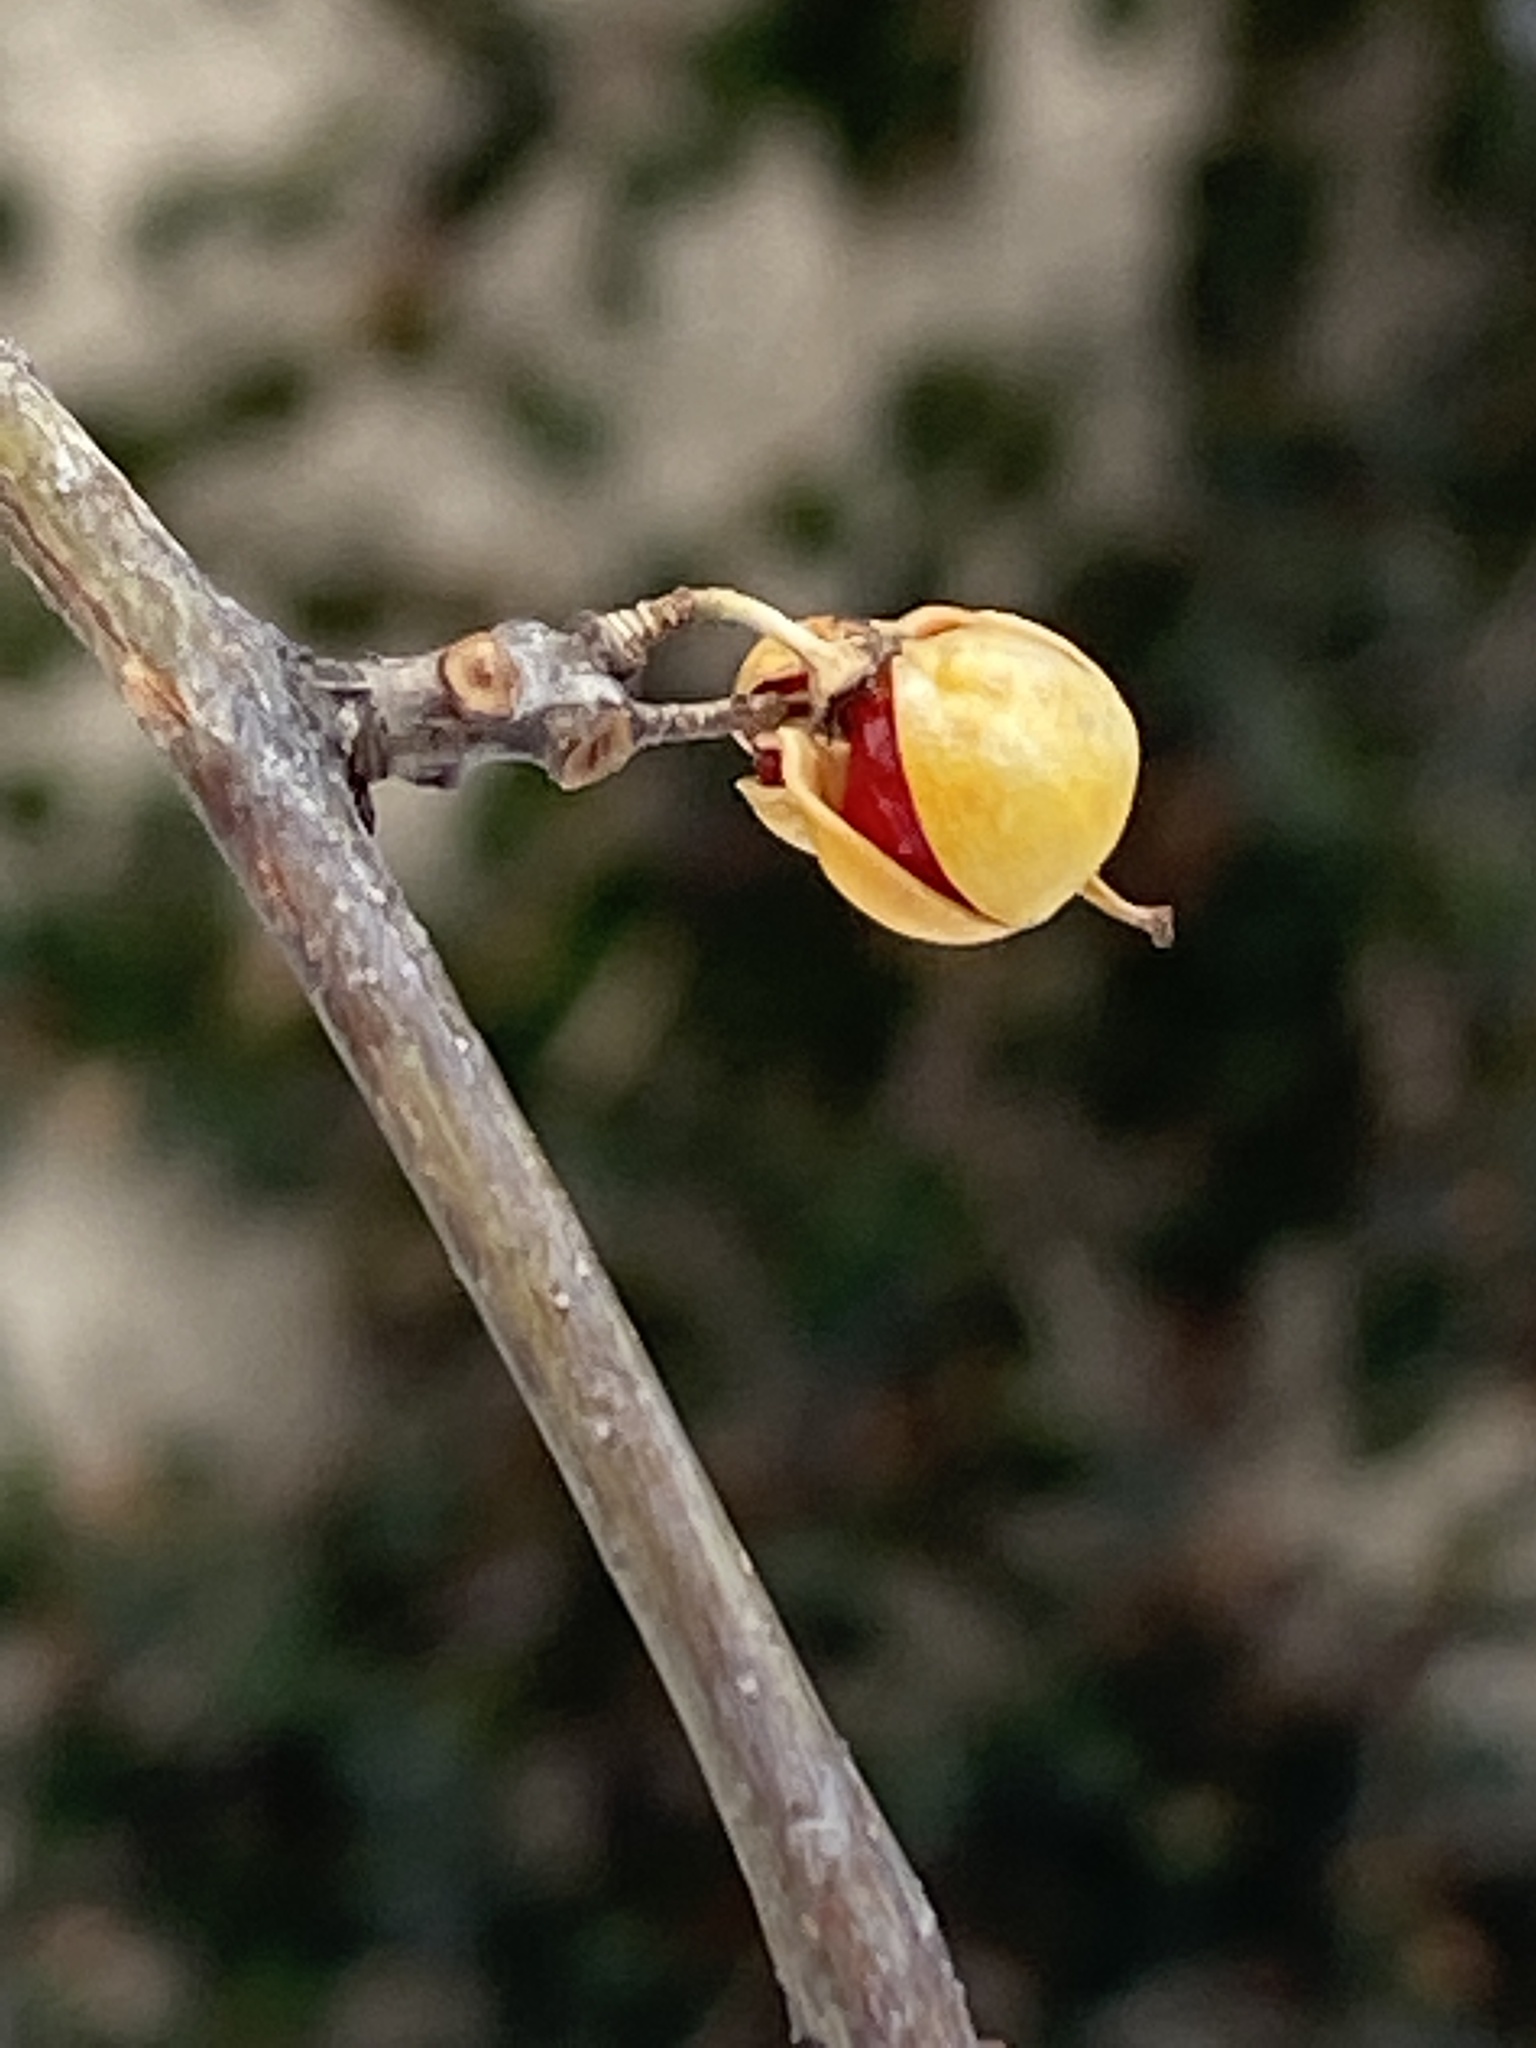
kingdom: Plantae
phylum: Tracheophyta
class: Magnoliopsida
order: Celastrales
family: Celastraceae
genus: Celastrus
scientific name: Celastrus orbiculatus
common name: Oriental bittersweet
